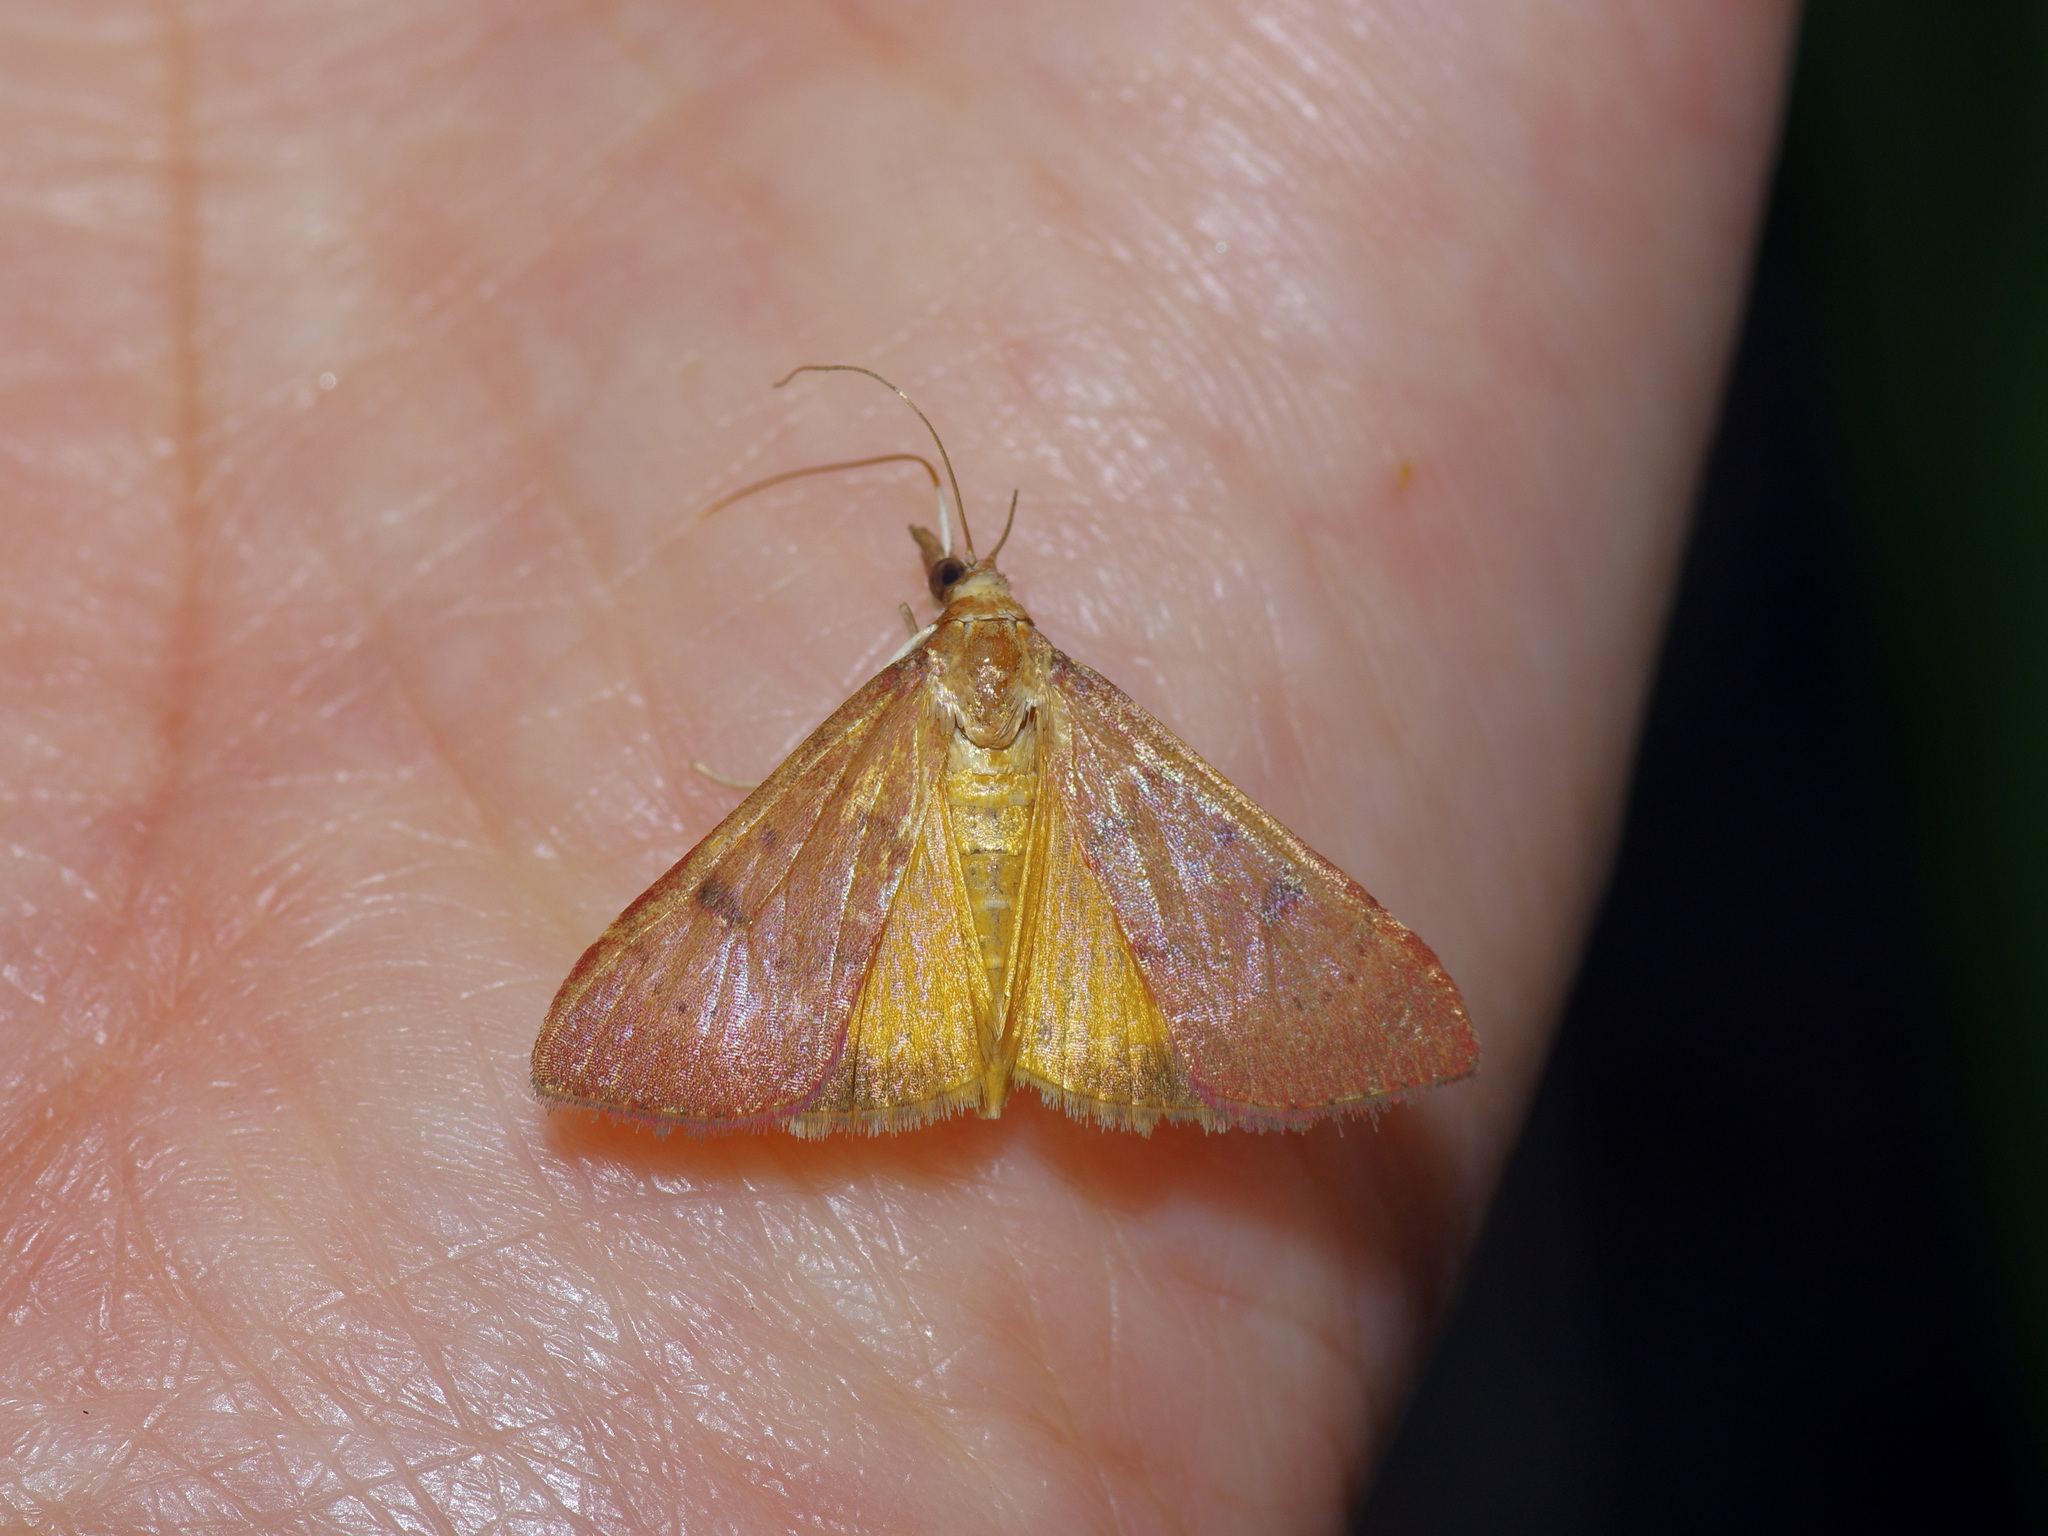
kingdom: Animalia
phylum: Arthropoda
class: Insecta
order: Lepidoptera
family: Crambidae
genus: Uresiphita
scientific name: Uresiphita reversalis
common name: Genista broom moth
